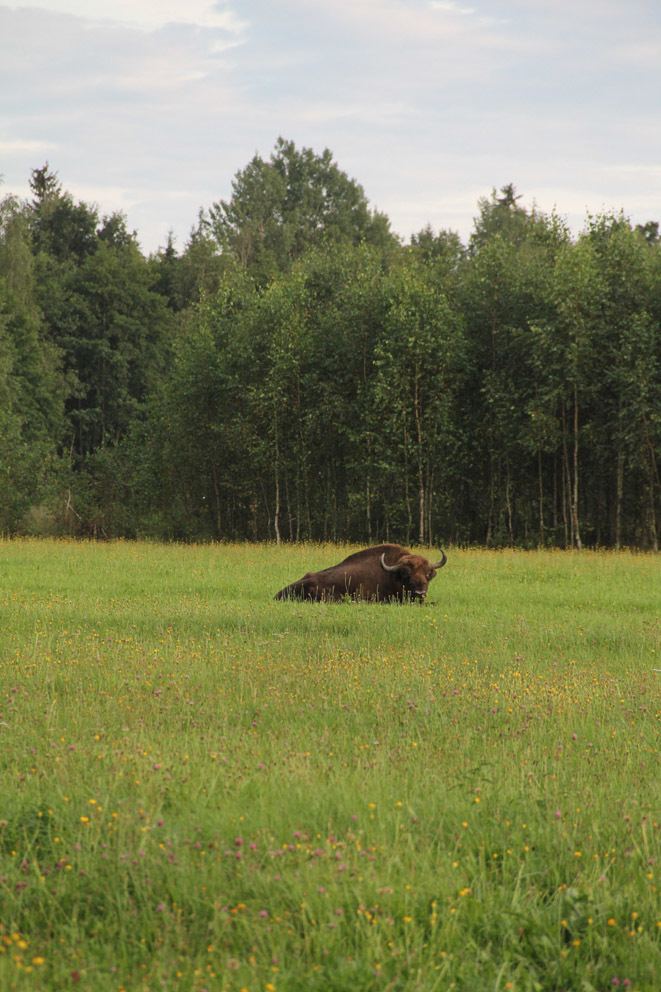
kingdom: Animalia
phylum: Chordata
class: Mammalia
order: Artiodactyla
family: Bovidae
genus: Bison
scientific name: Bison bonasus
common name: European bison
